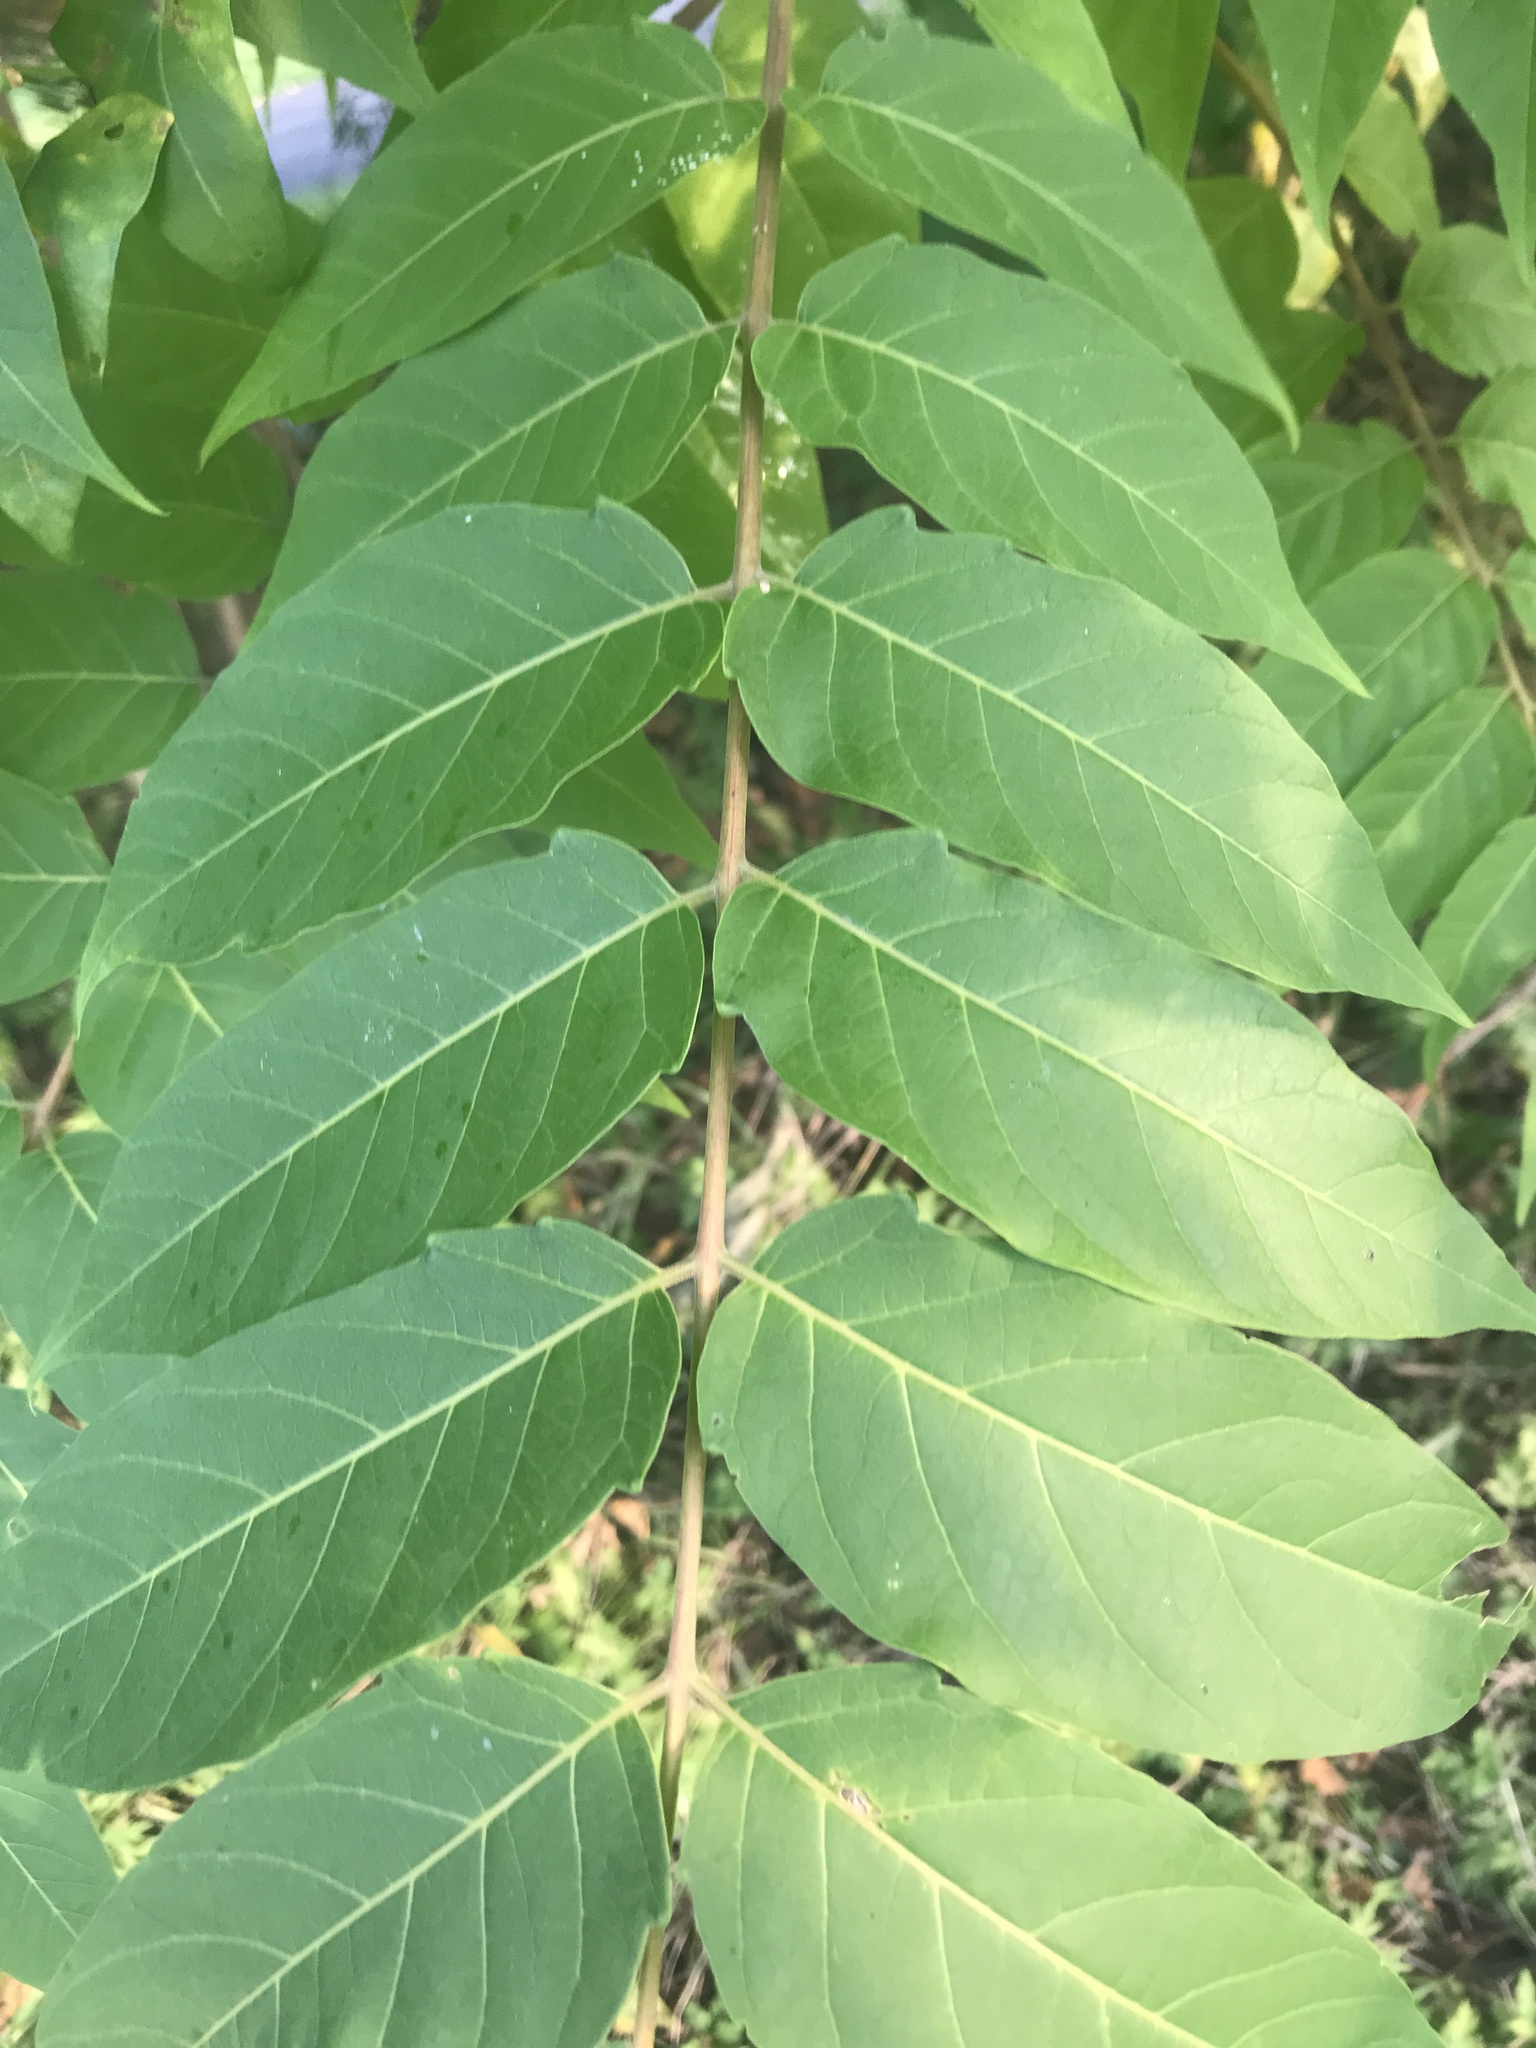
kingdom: Plantae
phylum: Tracheophyta
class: Magnoliopsida
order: Sapindales
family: Simaroubaceae
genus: Ailanthus
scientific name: Ailanthus altissima
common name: Tree-of-heaven
